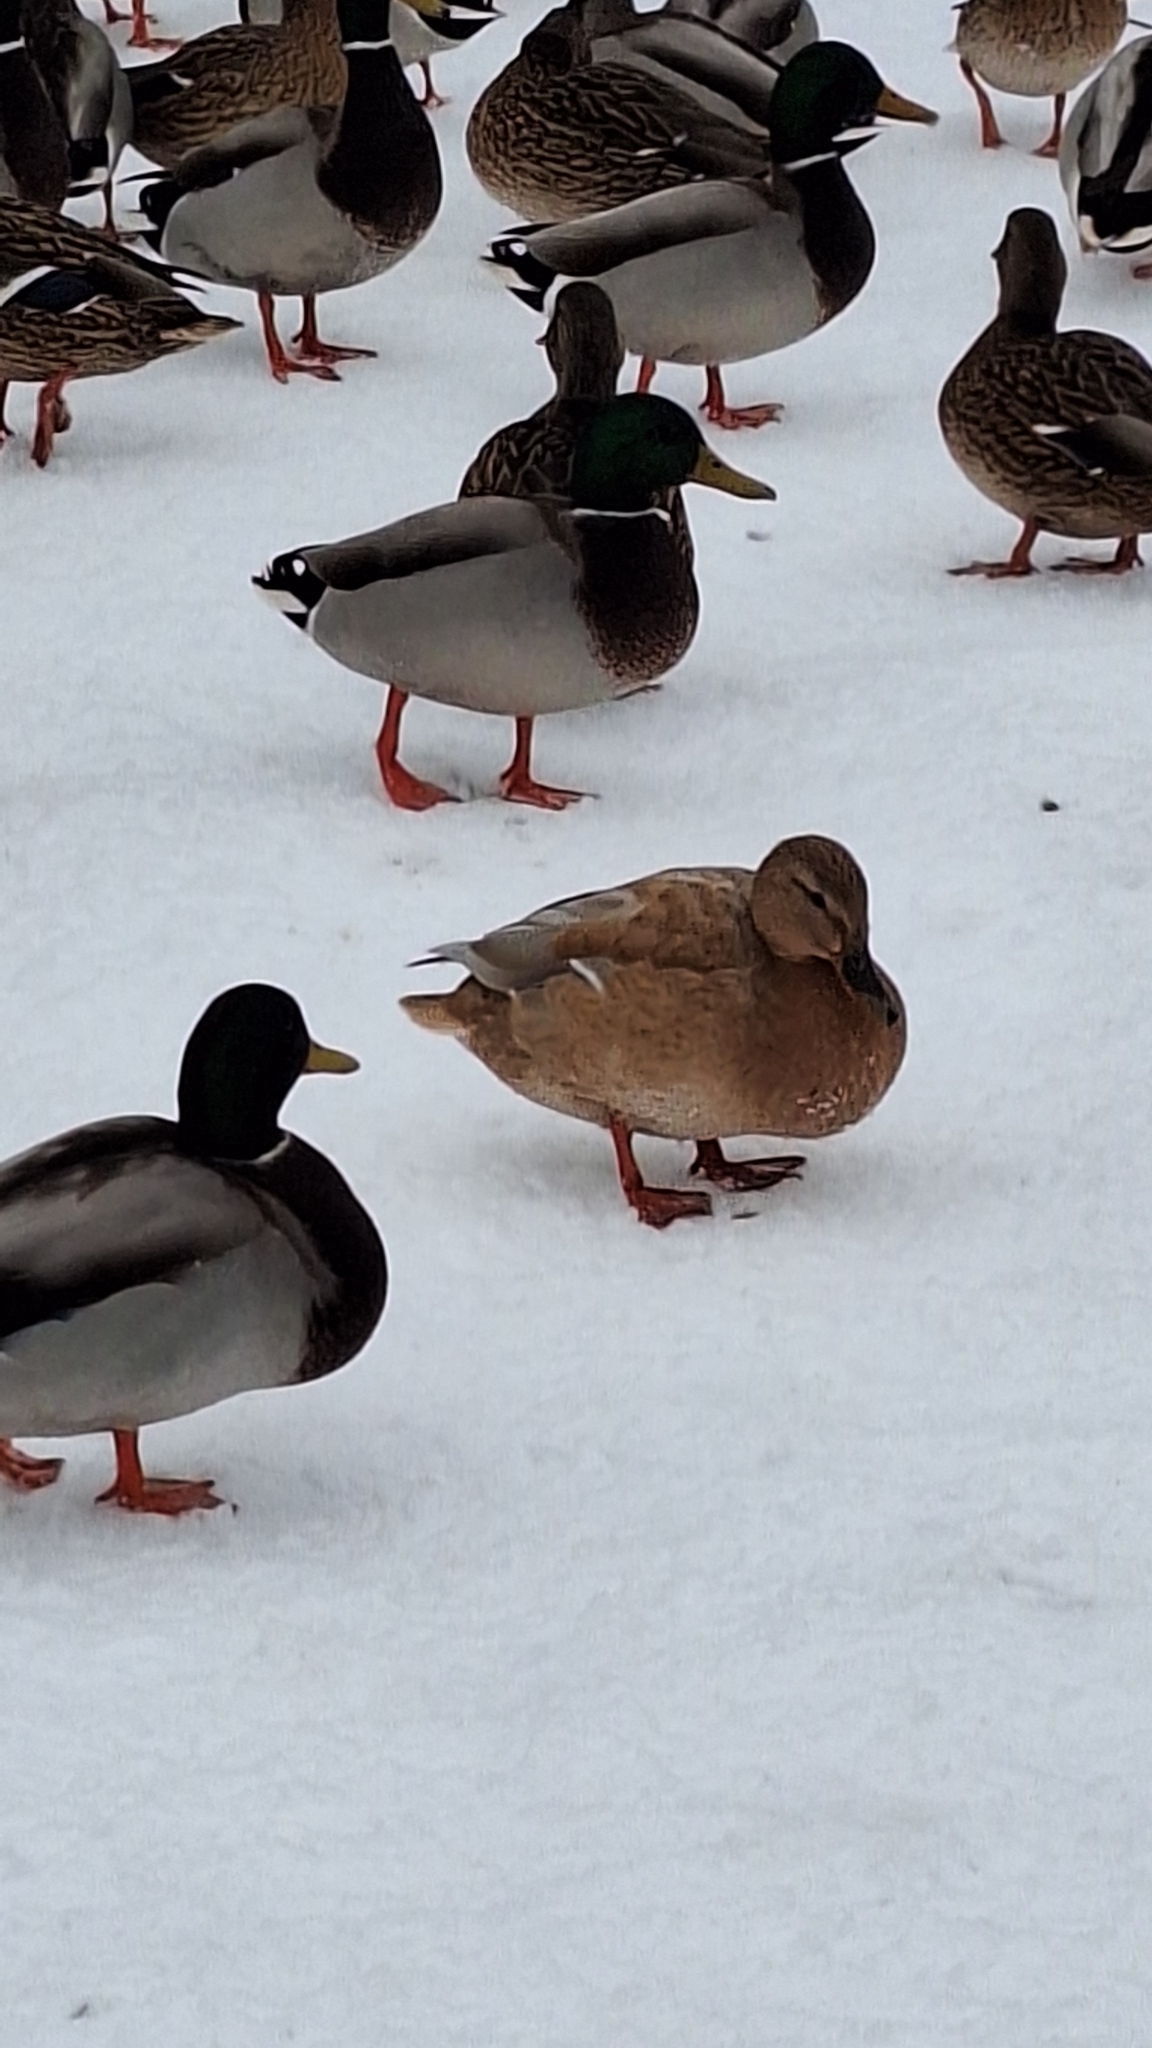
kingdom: Animalia
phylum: Chordata
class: Aves
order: Anseriformes
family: Anatidae
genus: Anas
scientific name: Anas platyrhynchos
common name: Mallard
